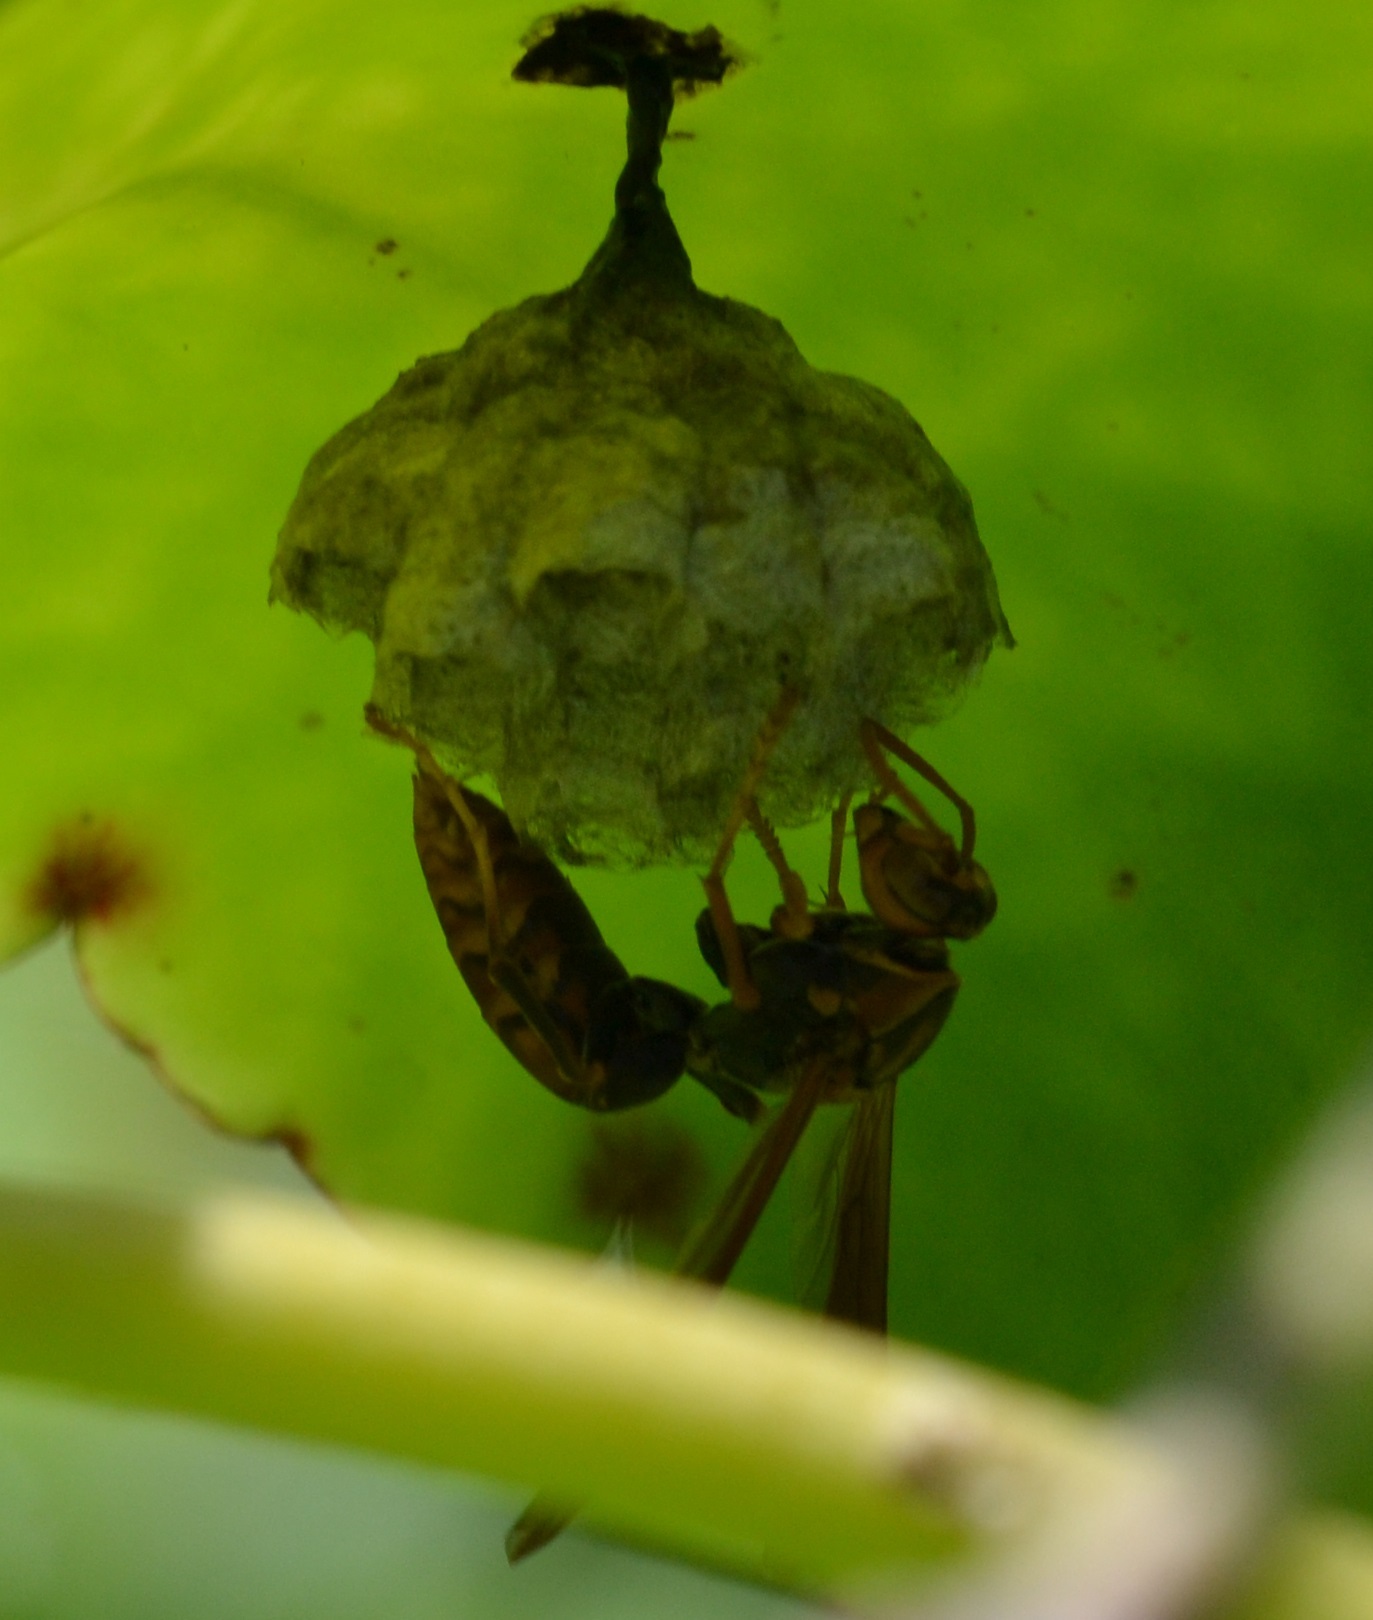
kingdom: Animalia
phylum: Arthropoda
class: Insecta
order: Hymenoptera
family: Eumenidae
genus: Polistes
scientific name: Polistes jokahamae
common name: Paper wasp
